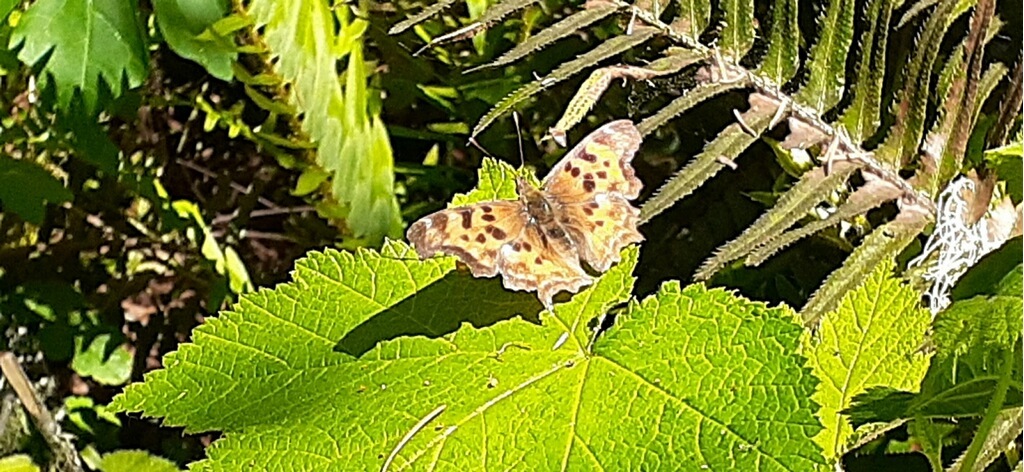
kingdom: Animalia
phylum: Arthropoda
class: Insecta
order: Lepidoptera
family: Nymphalidae
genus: Polygonia
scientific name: Polygonia satyrus
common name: Satyr angle wing
